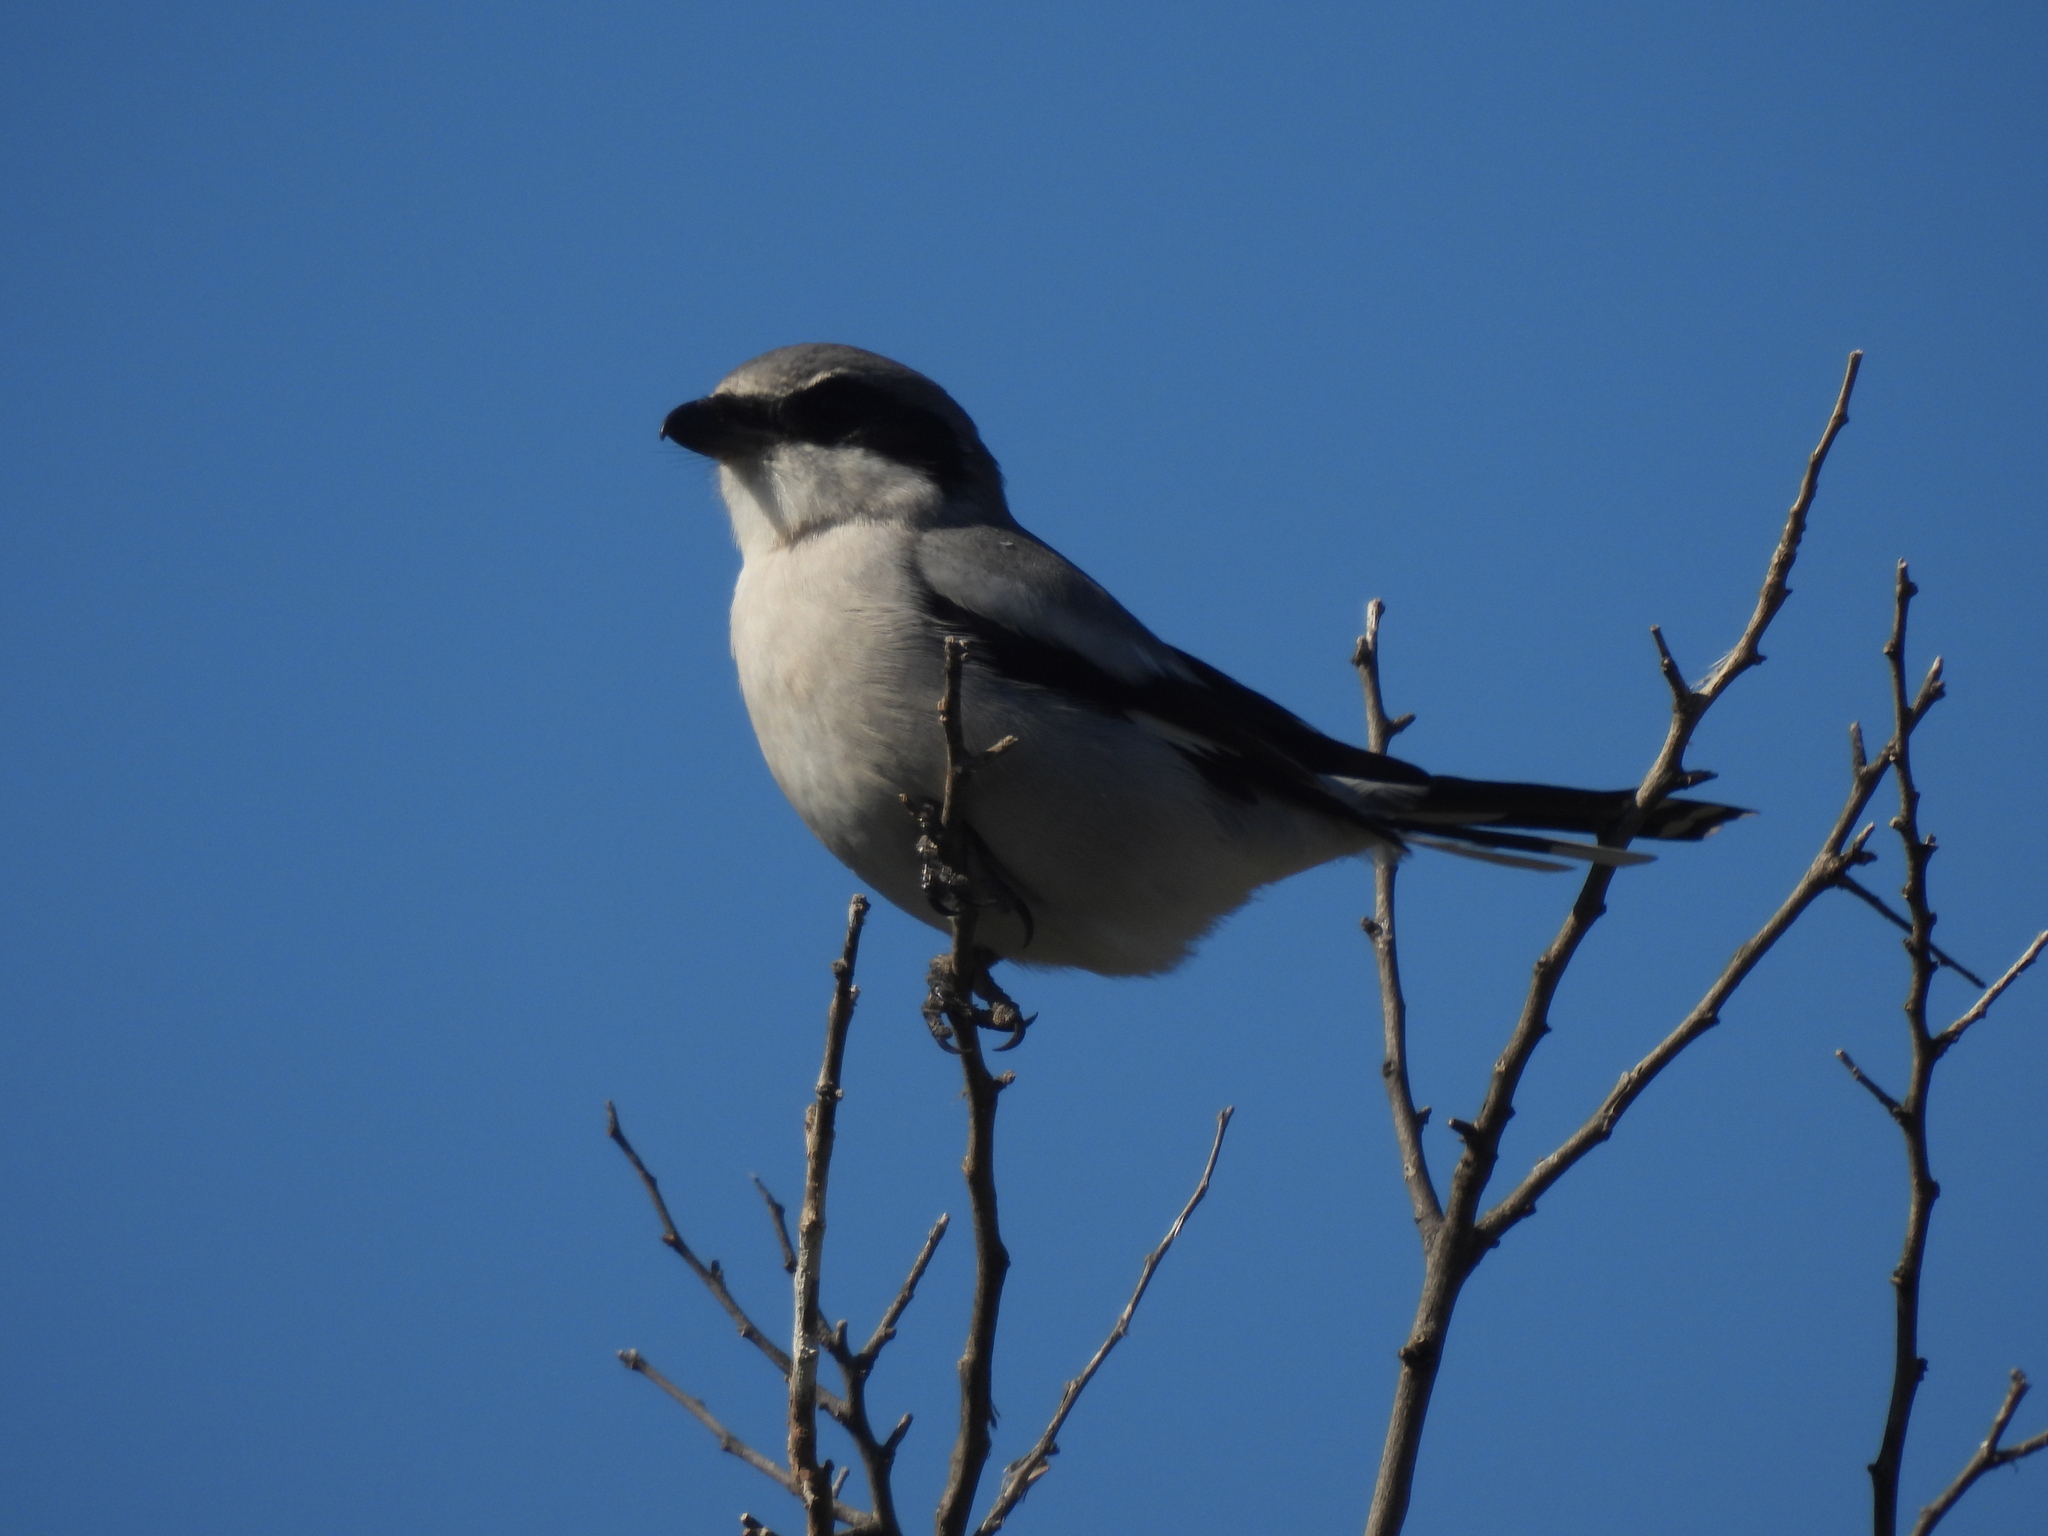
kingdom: Animalia
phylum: Chordata
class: Aves
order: Passeriformes
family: Laniidae
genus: Lanius
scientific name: Lanius ludovicianus
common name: Loggerhead shrike
